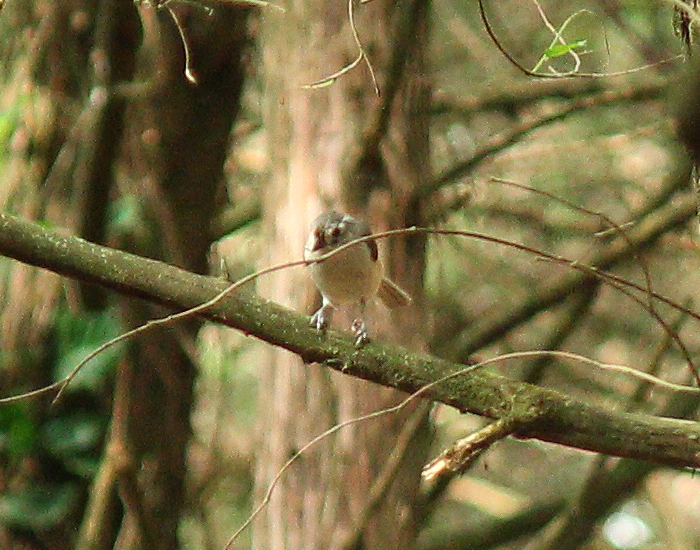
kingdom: Animalia
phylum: Chordata
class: Aves
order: Passeriformes
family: Paridae
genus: Baeolophus
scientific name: Baeolophus bicolor
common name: Tufted titmouse
